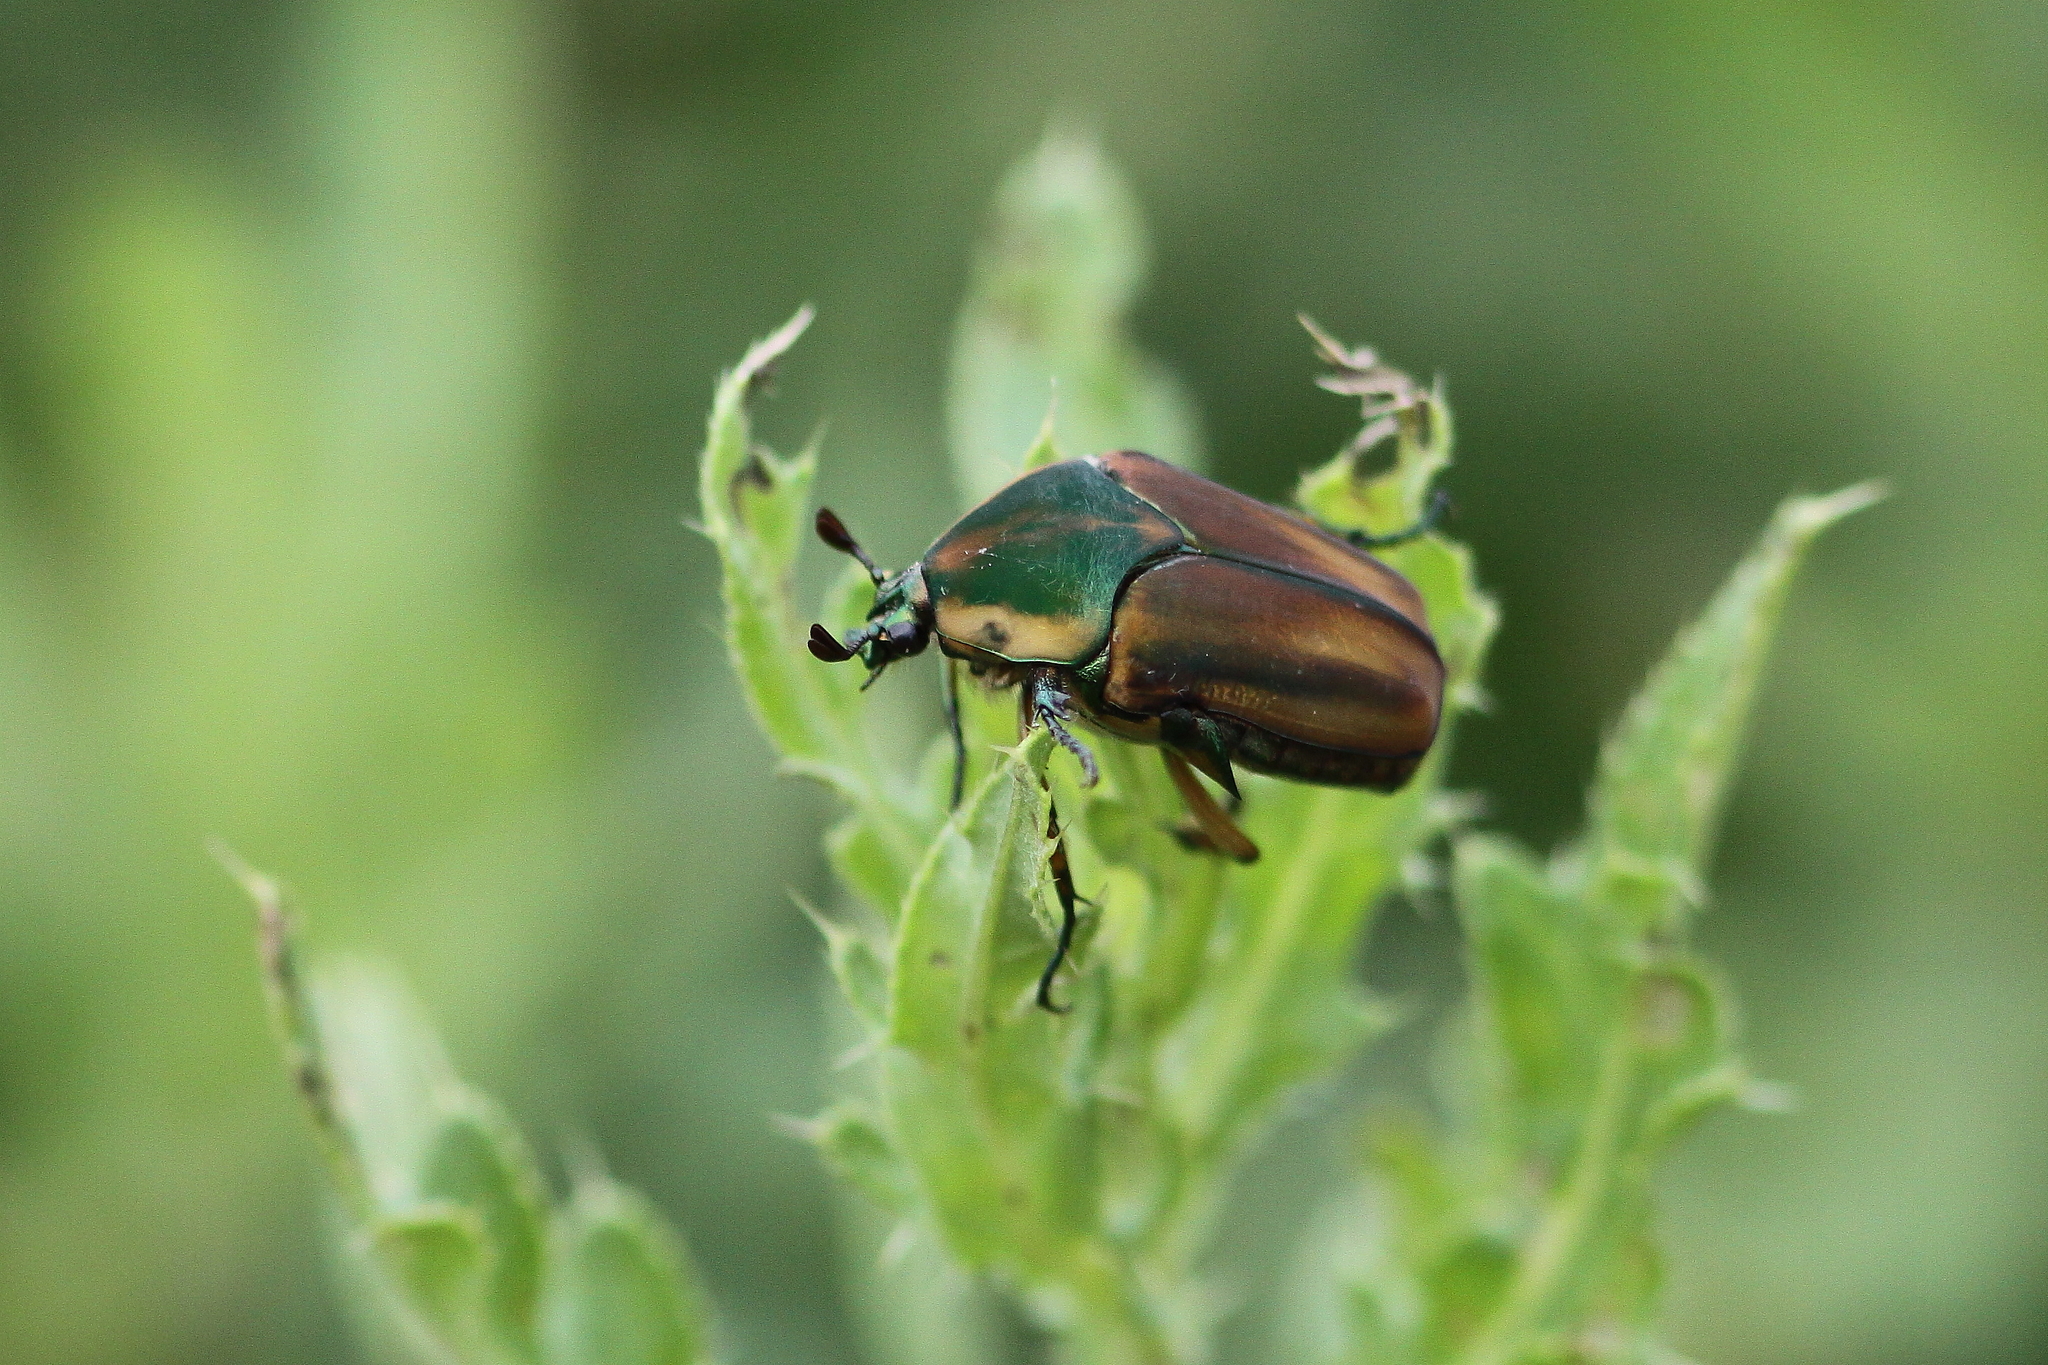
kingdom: Animalia
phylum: Arthropoda
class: Insecta
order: Coleoptera
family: Scarabaeidae
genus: Cotinis
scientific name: Cotinis nitida
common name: Common green june beetle
